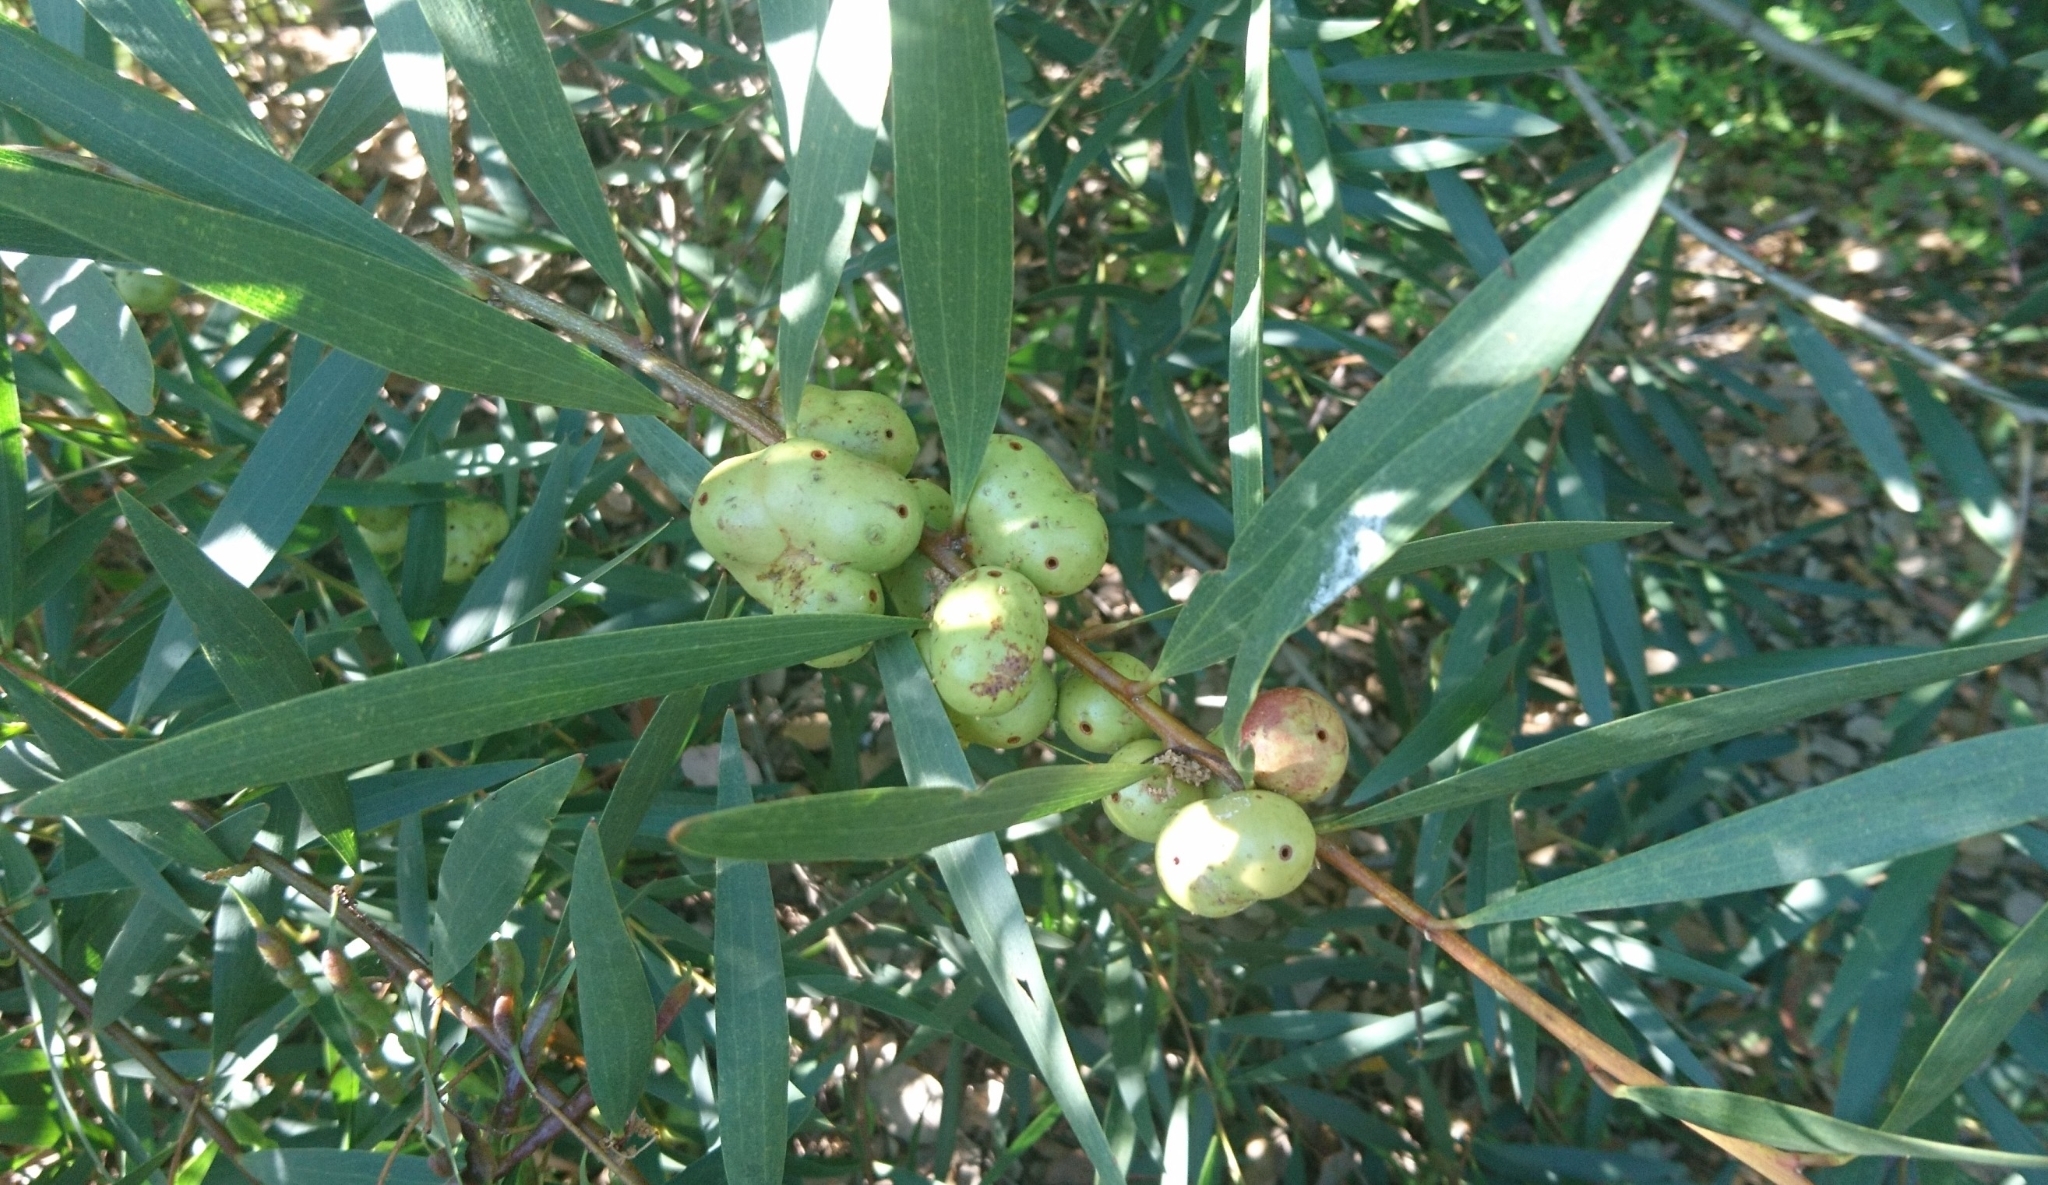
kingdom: Animalia
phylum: Arthropoda
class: Insecta
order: Hymenoptera
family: Pteromalidae
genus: Trichilogaster
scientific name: Trichilogaster acaciaelongifoliae
